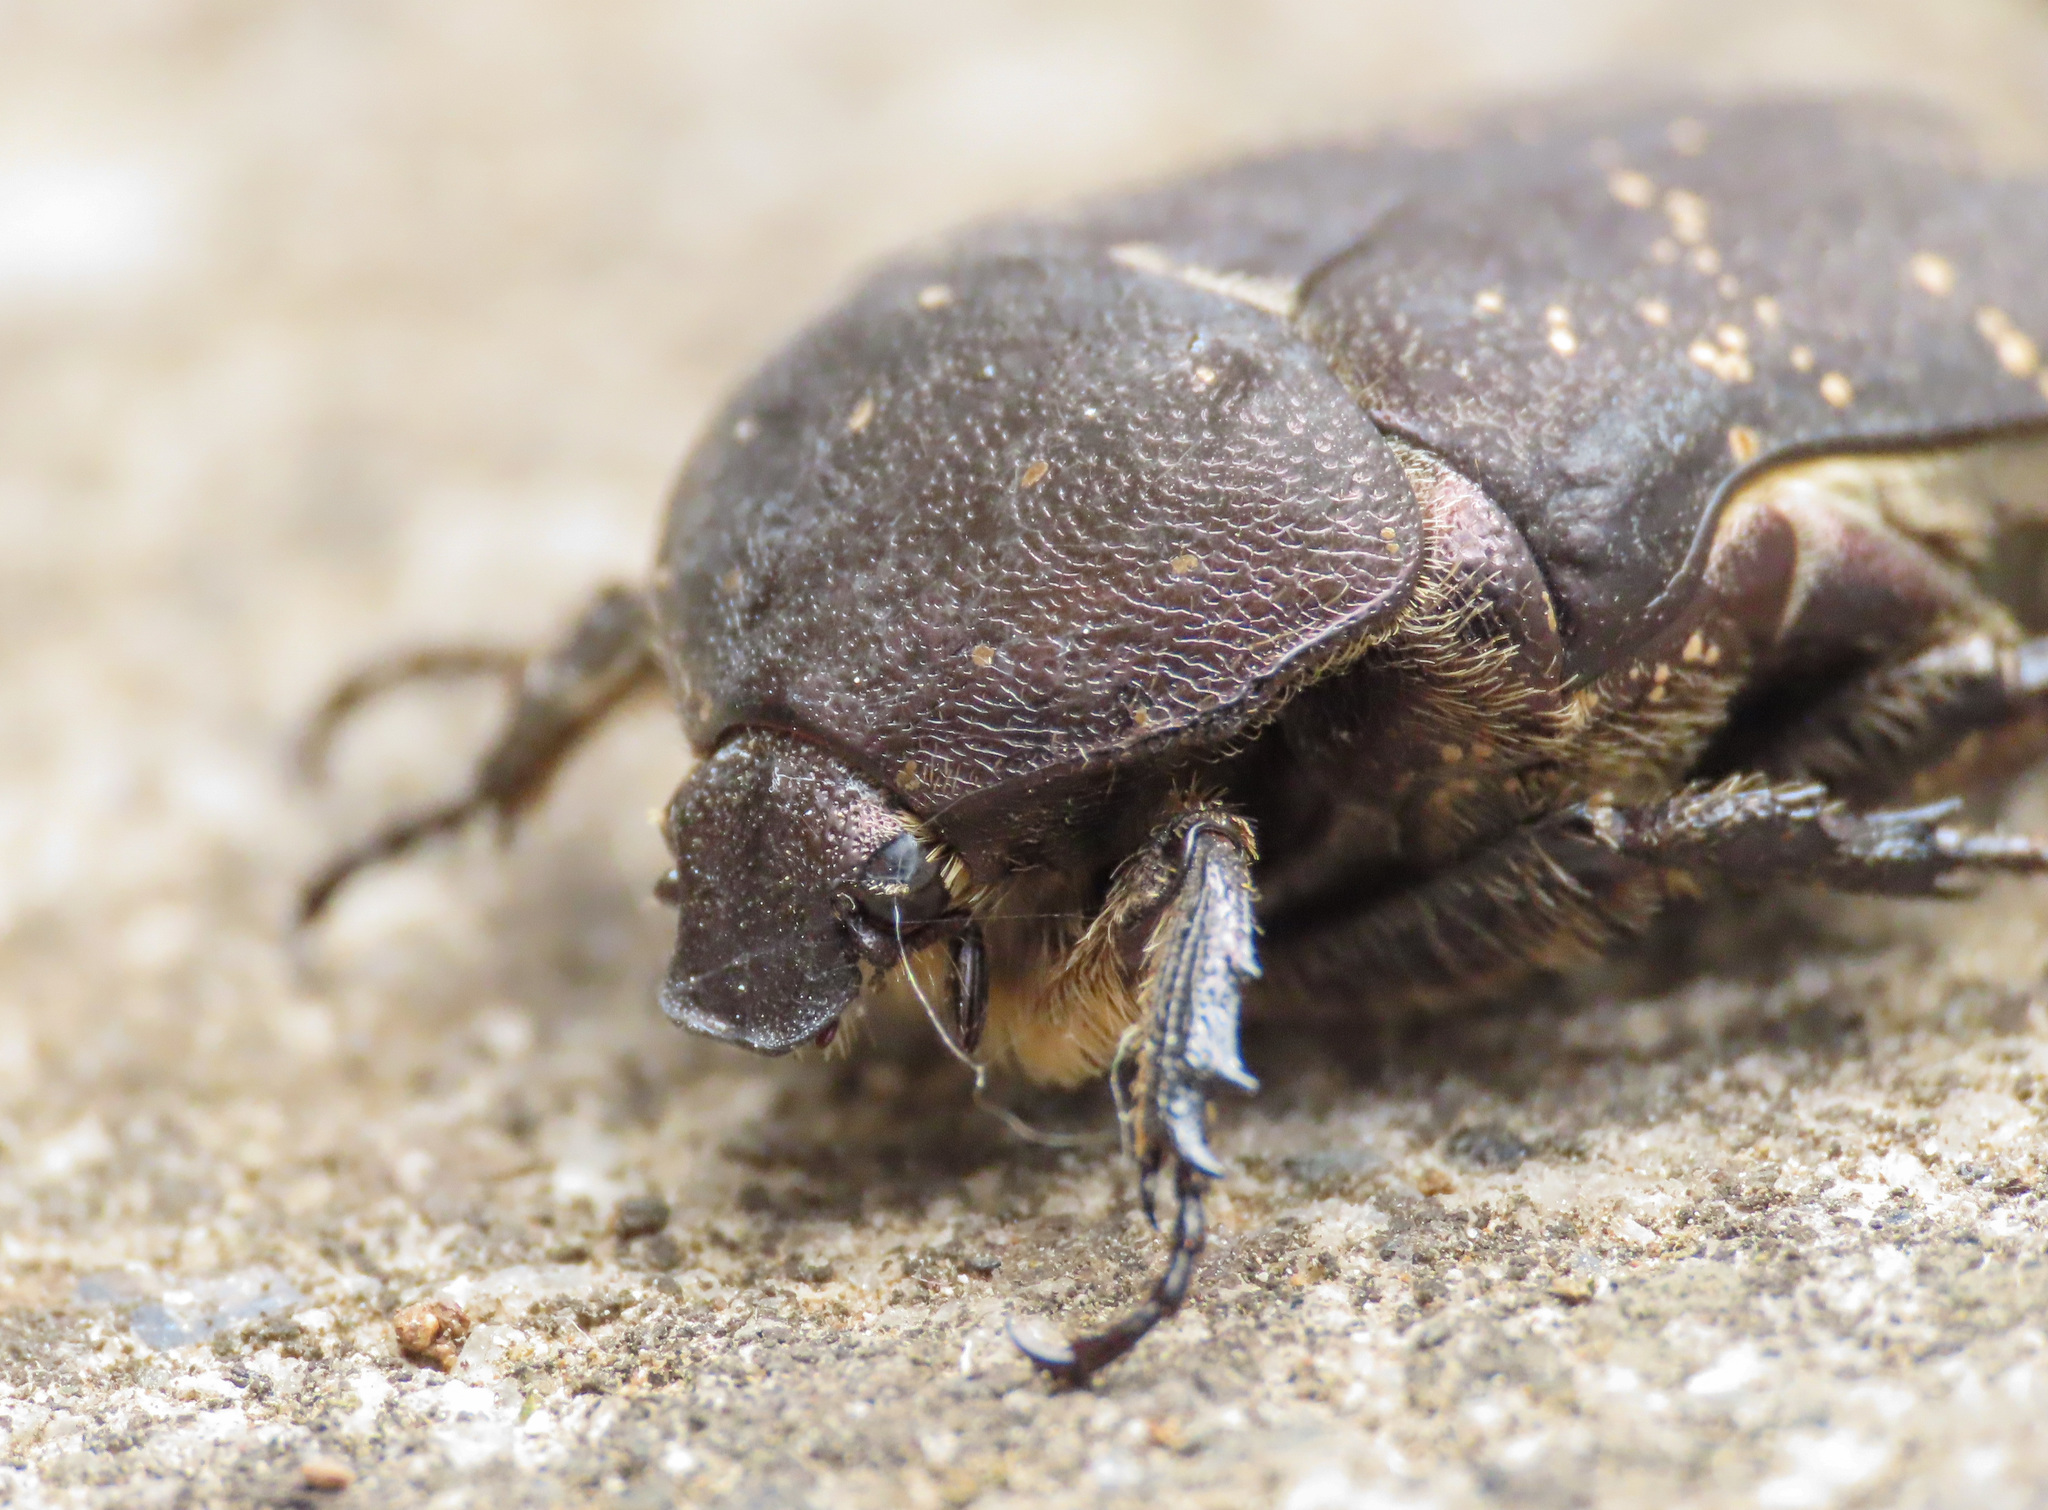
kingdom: Animalia
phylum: Arthropoda
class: Insecta
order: Coleoptera
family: Scarabaeidae
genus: Protaetia
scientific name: Protaetia morio
